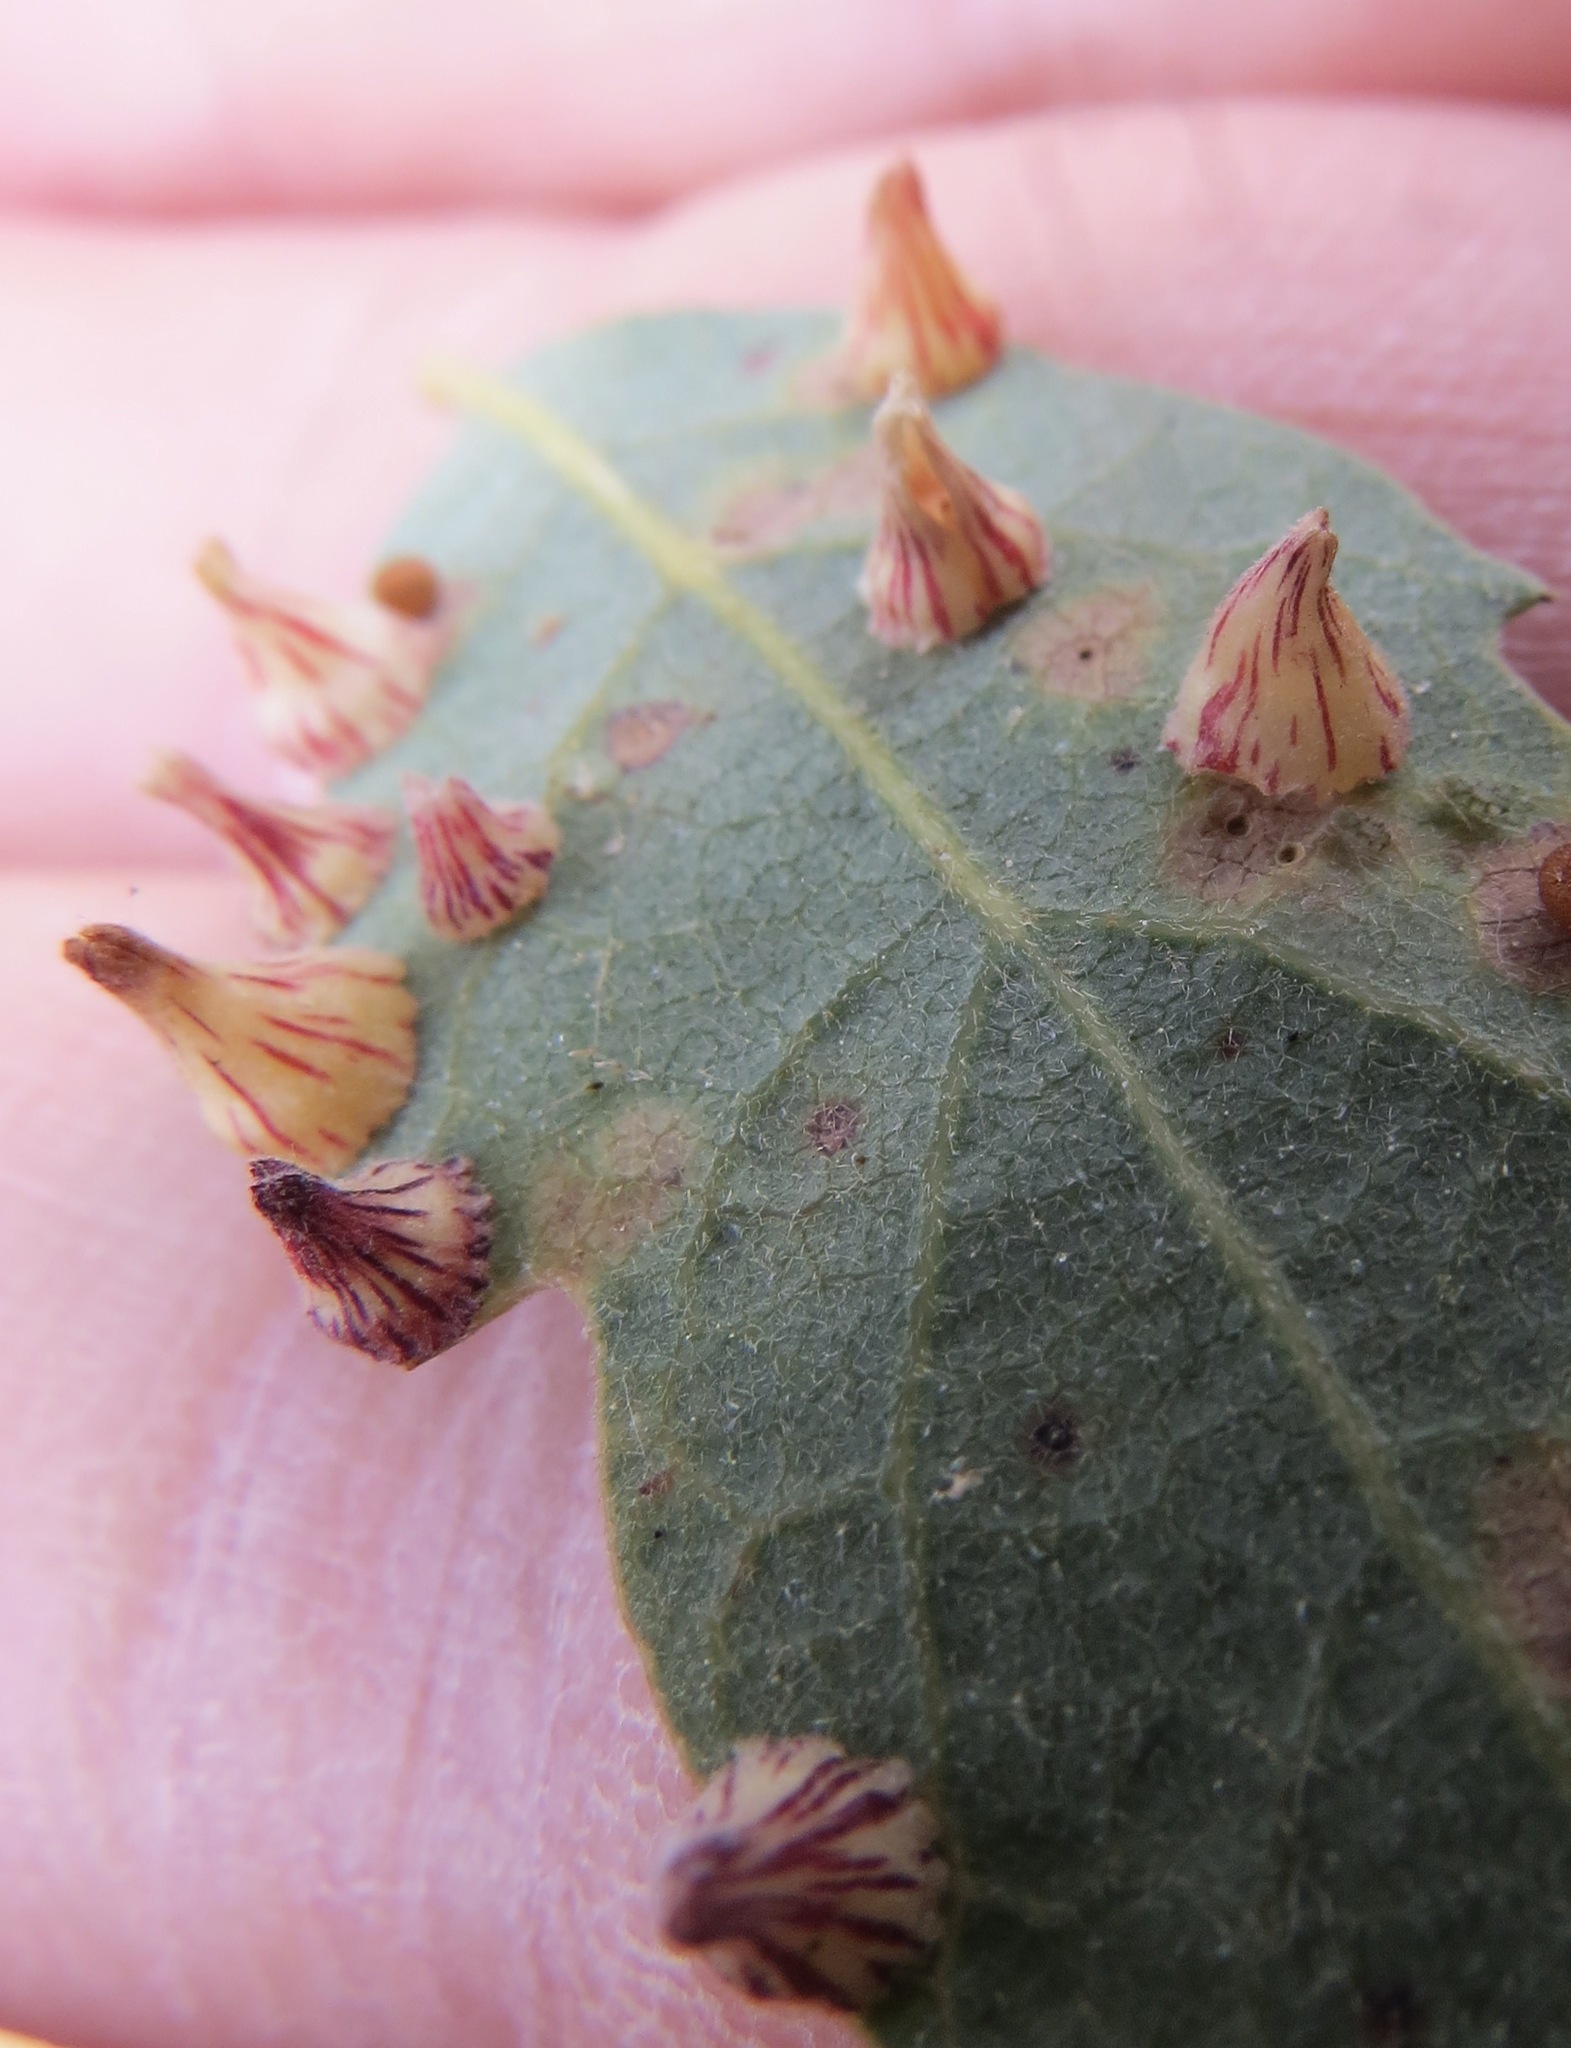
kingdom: Animalia
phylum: Arthropoda
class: Insecta
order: Hymenoptera
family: Cynipidae
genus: Andricus
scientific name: Andricus
